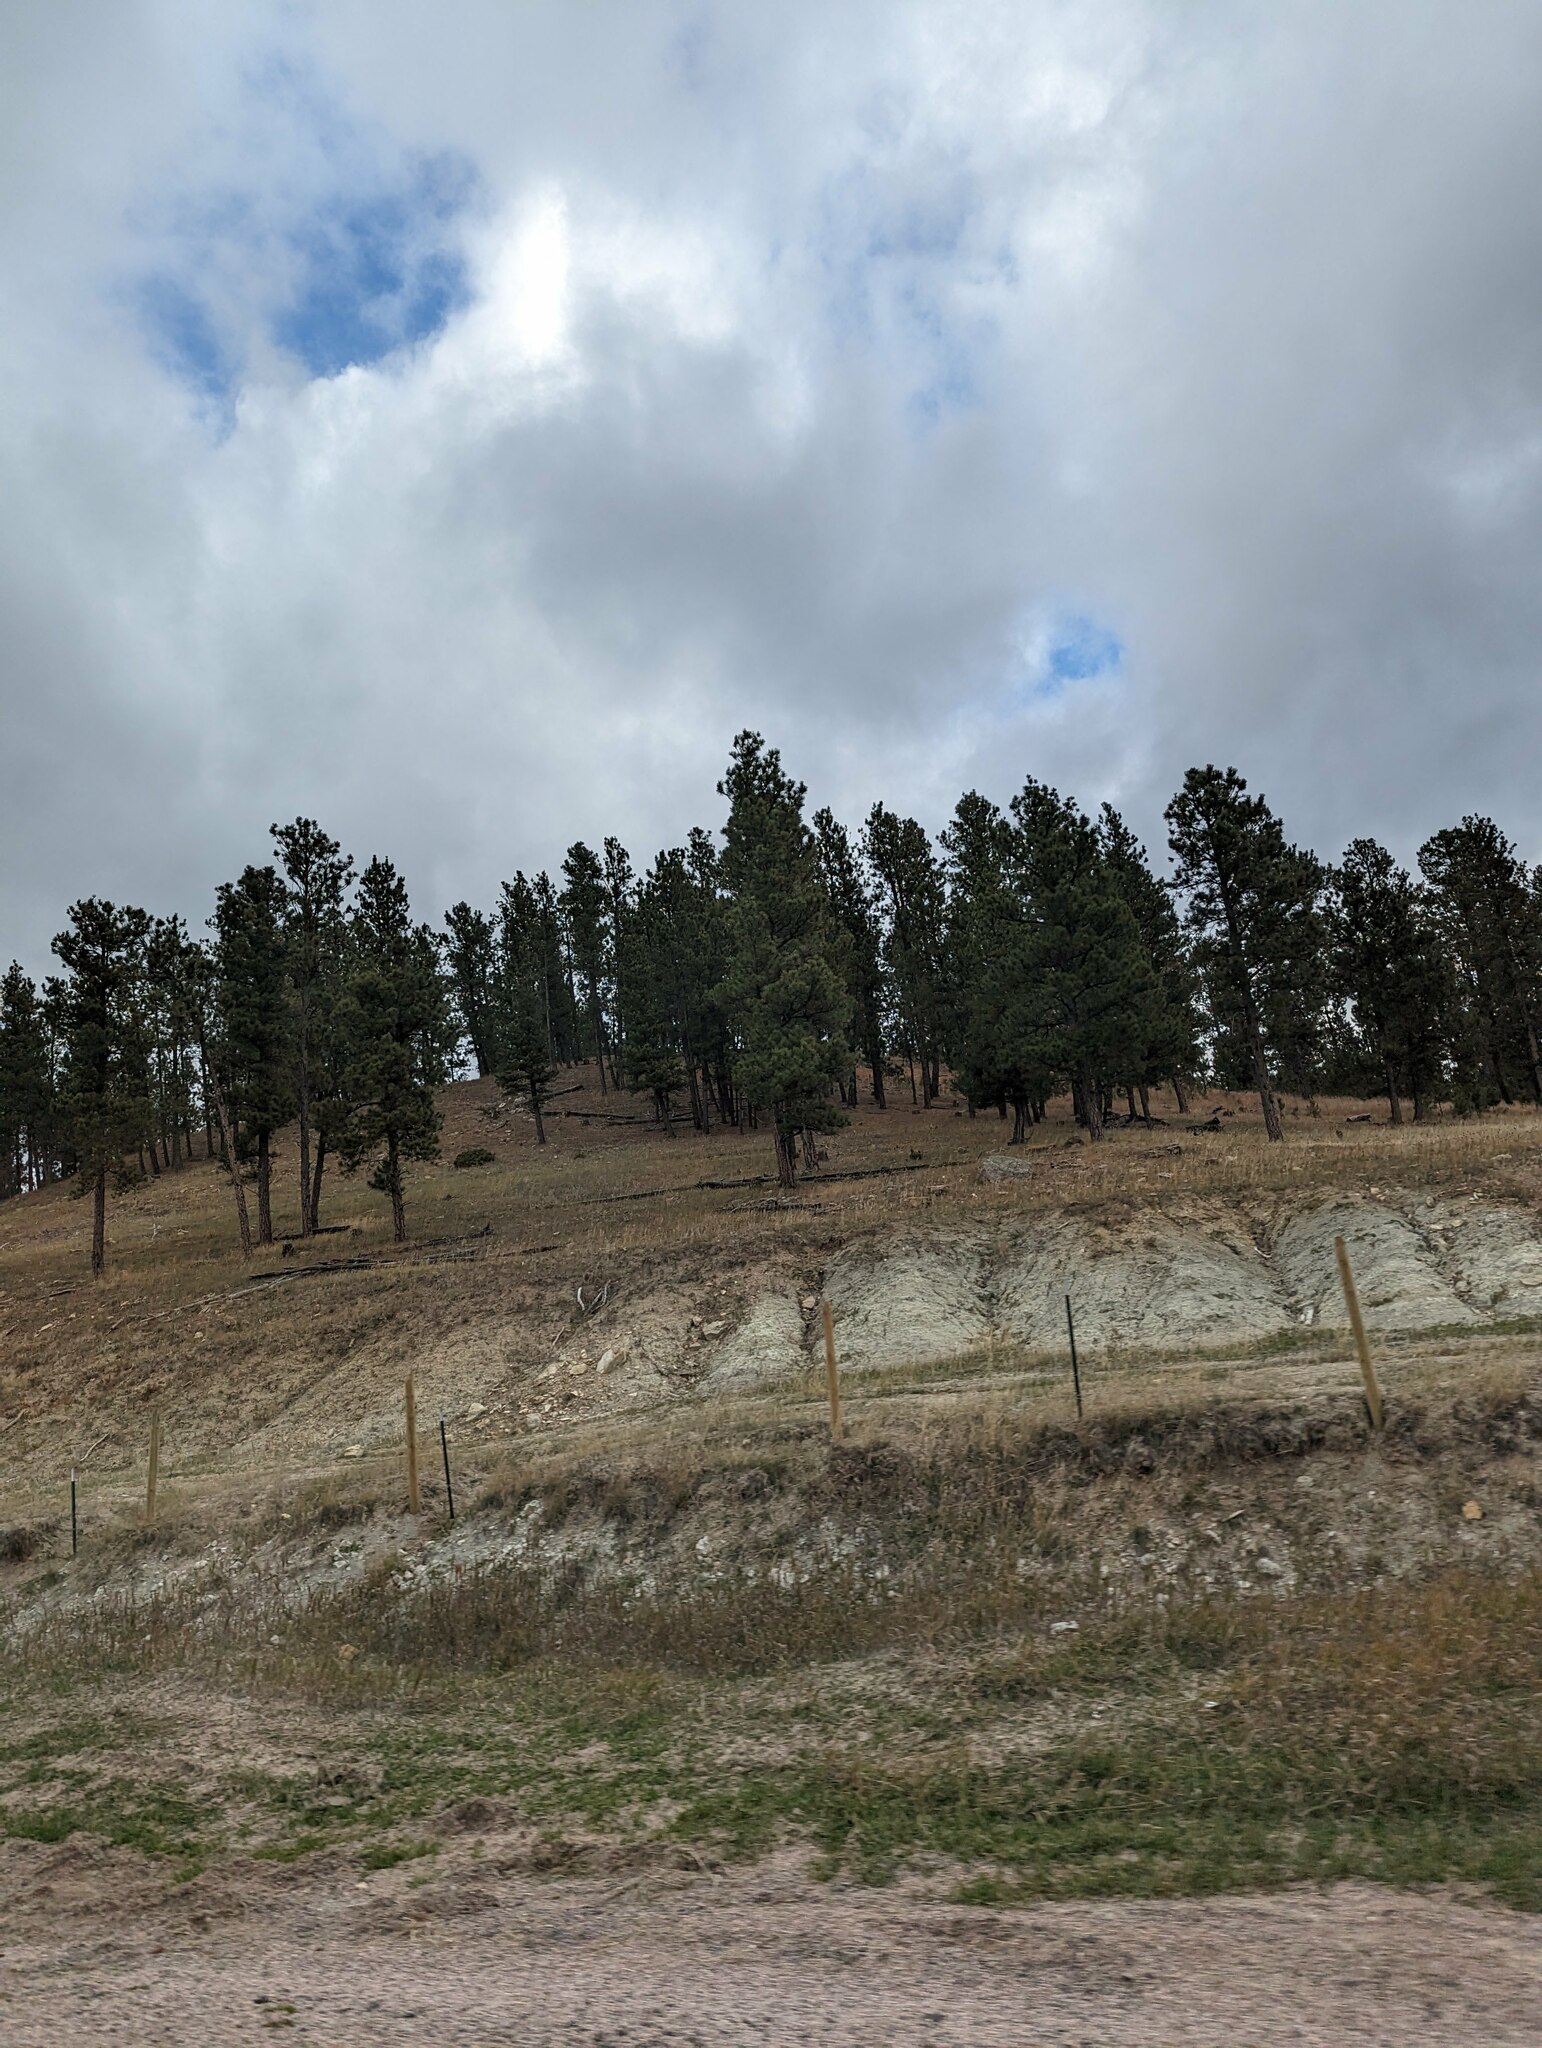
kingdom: Plantae
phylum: Tracheophyta
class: Pinopsida
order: Pinales
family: Pinaceae
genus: Pinus
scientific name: Pinus ponderosa
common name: Western yellow-pine
